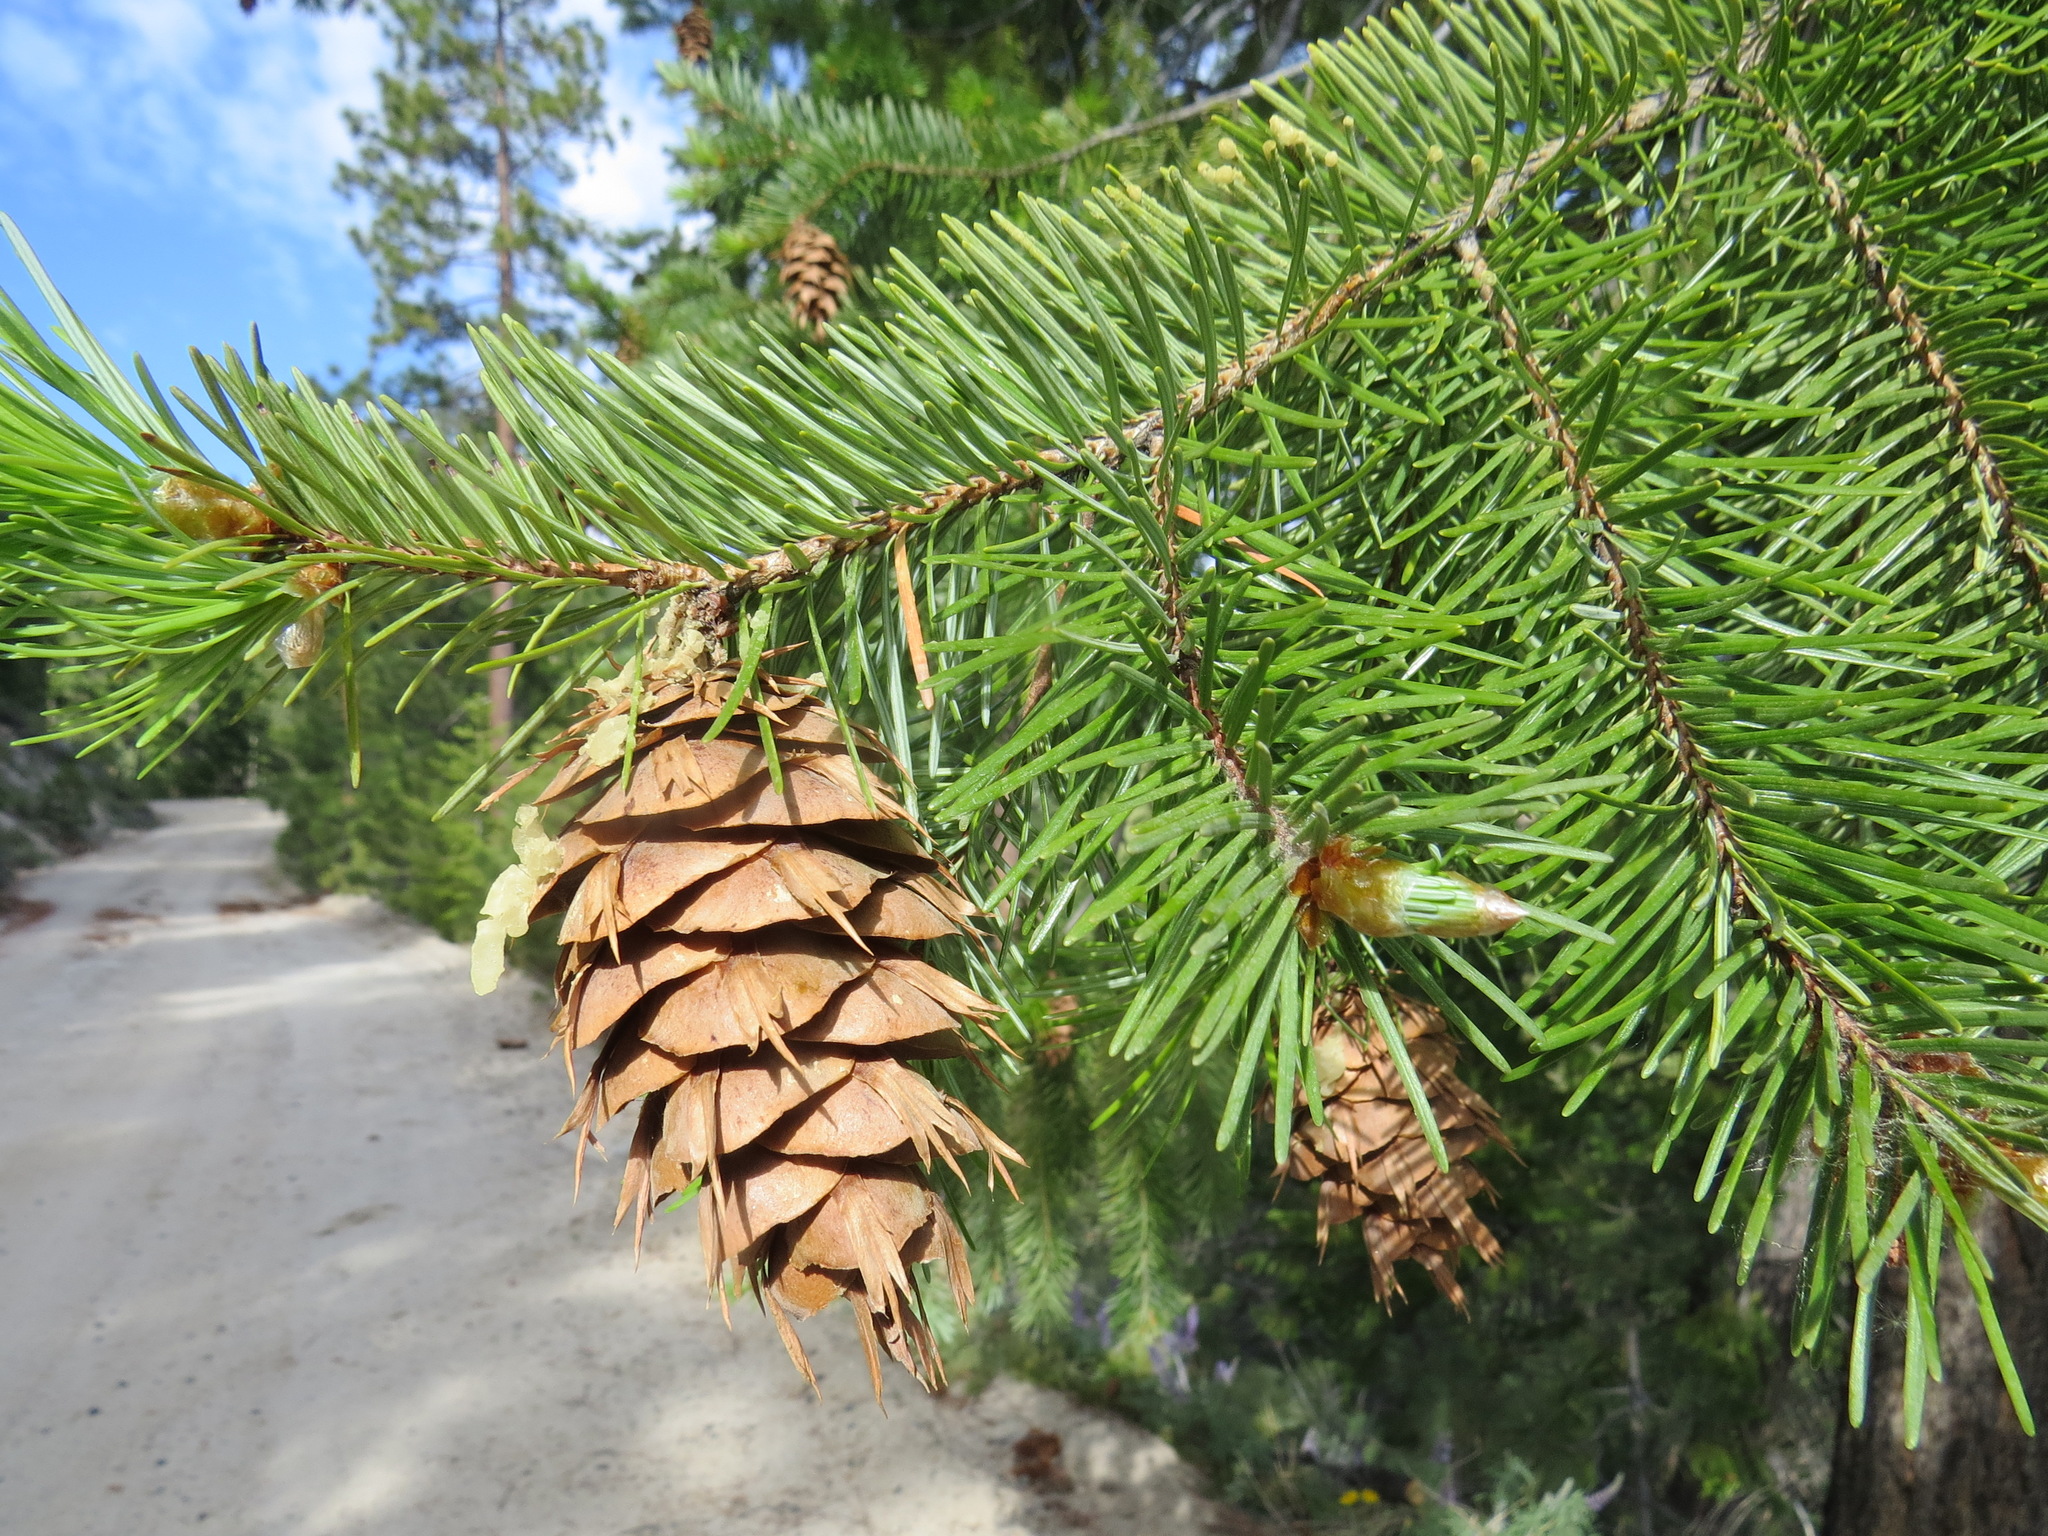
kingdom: Plantae
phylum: Tracheophyta
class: Pinopsida
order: Pinales
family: Pinaceae
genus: Pseudotsuga
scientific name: Pseudotsuga menziesii
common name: Douglas fir
